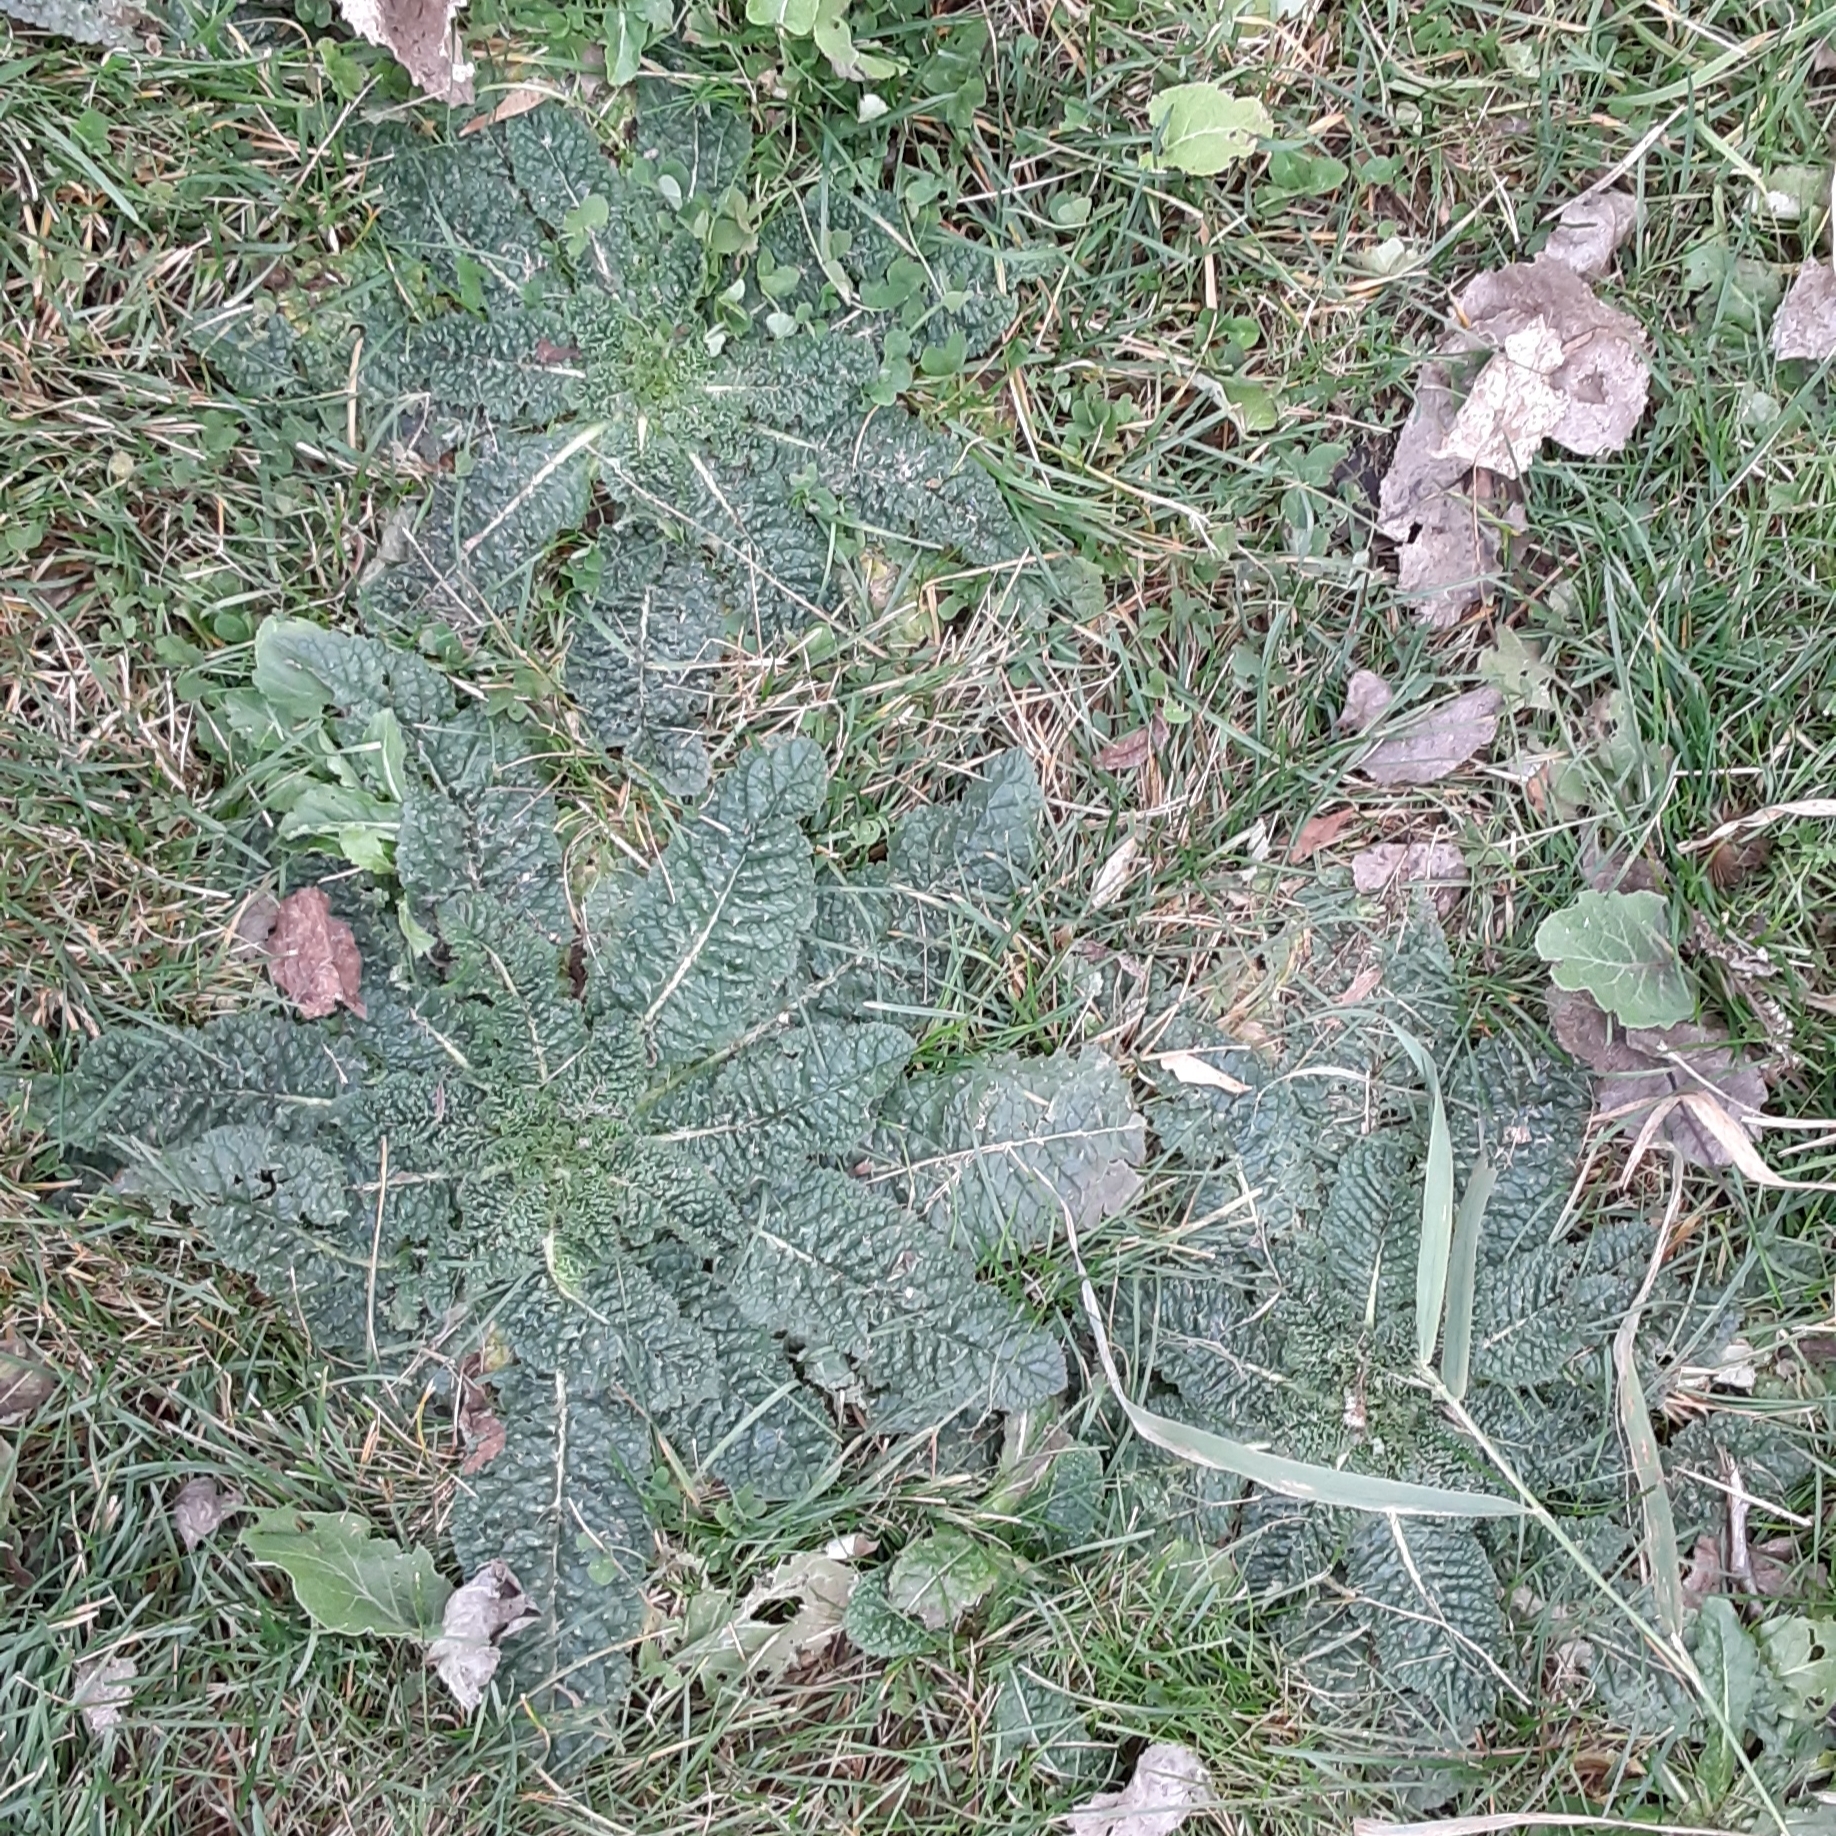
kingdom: Plantae
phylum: Tracheophyta
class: Magnoliopsida
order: Lamiales
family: Scrophulariaceae
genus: Verbascum
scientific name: Verbascum blattaria
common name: Moth mullein
